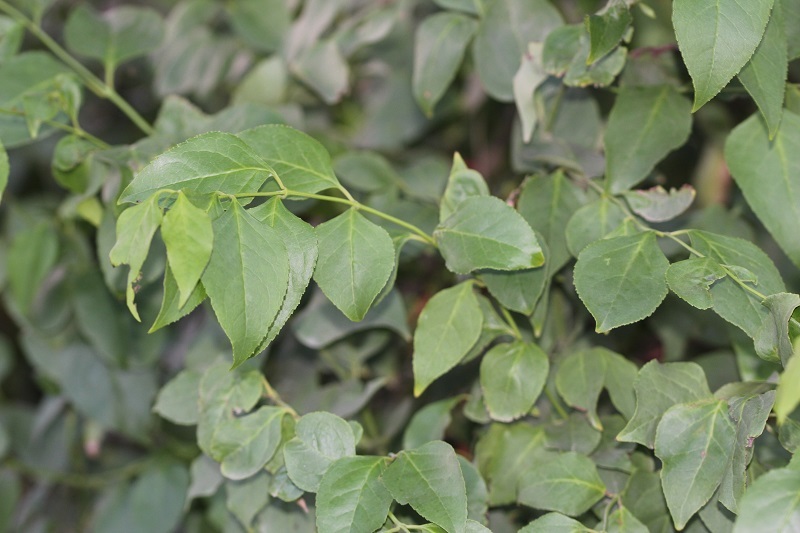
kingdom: Plantae
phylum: Tracheophyta
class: Magnoliopsida
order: Lamiales
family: Stilbaceae
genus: Halleria
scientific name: Halleria lucida
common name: Tree fuschia
